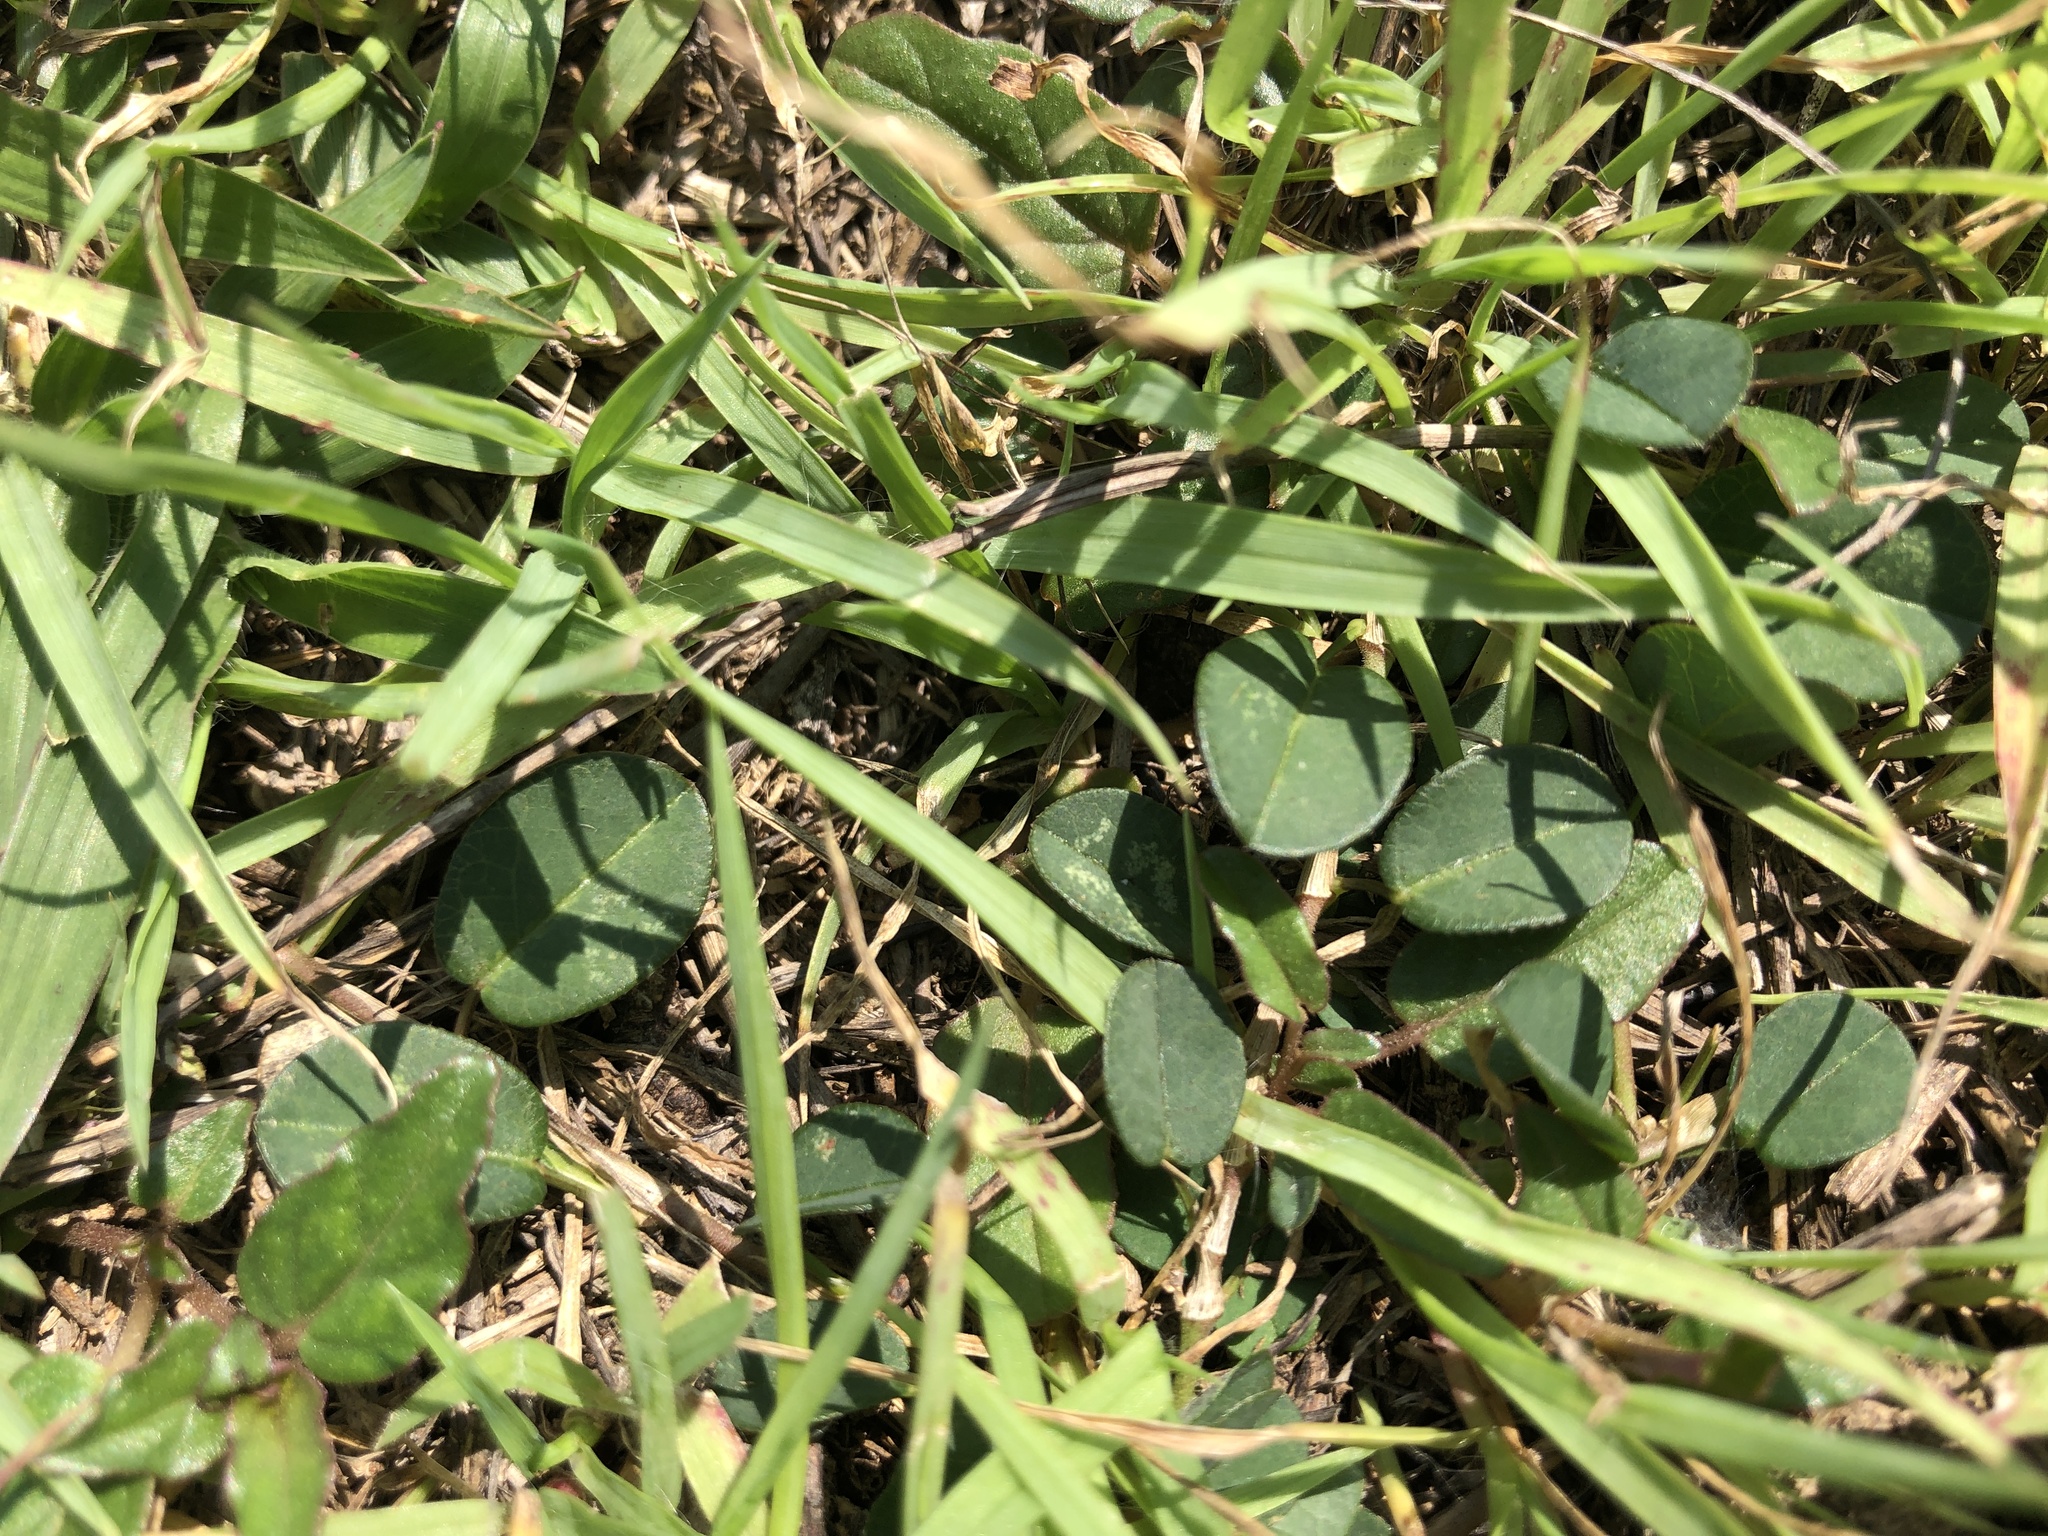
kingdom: Plantae
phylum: Tracheophyta
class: Magnoliopsida
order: Fabales
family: Fabaceae
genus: Alysicarpus
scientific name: Alysicarpus vaginalis
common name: White moneywort
